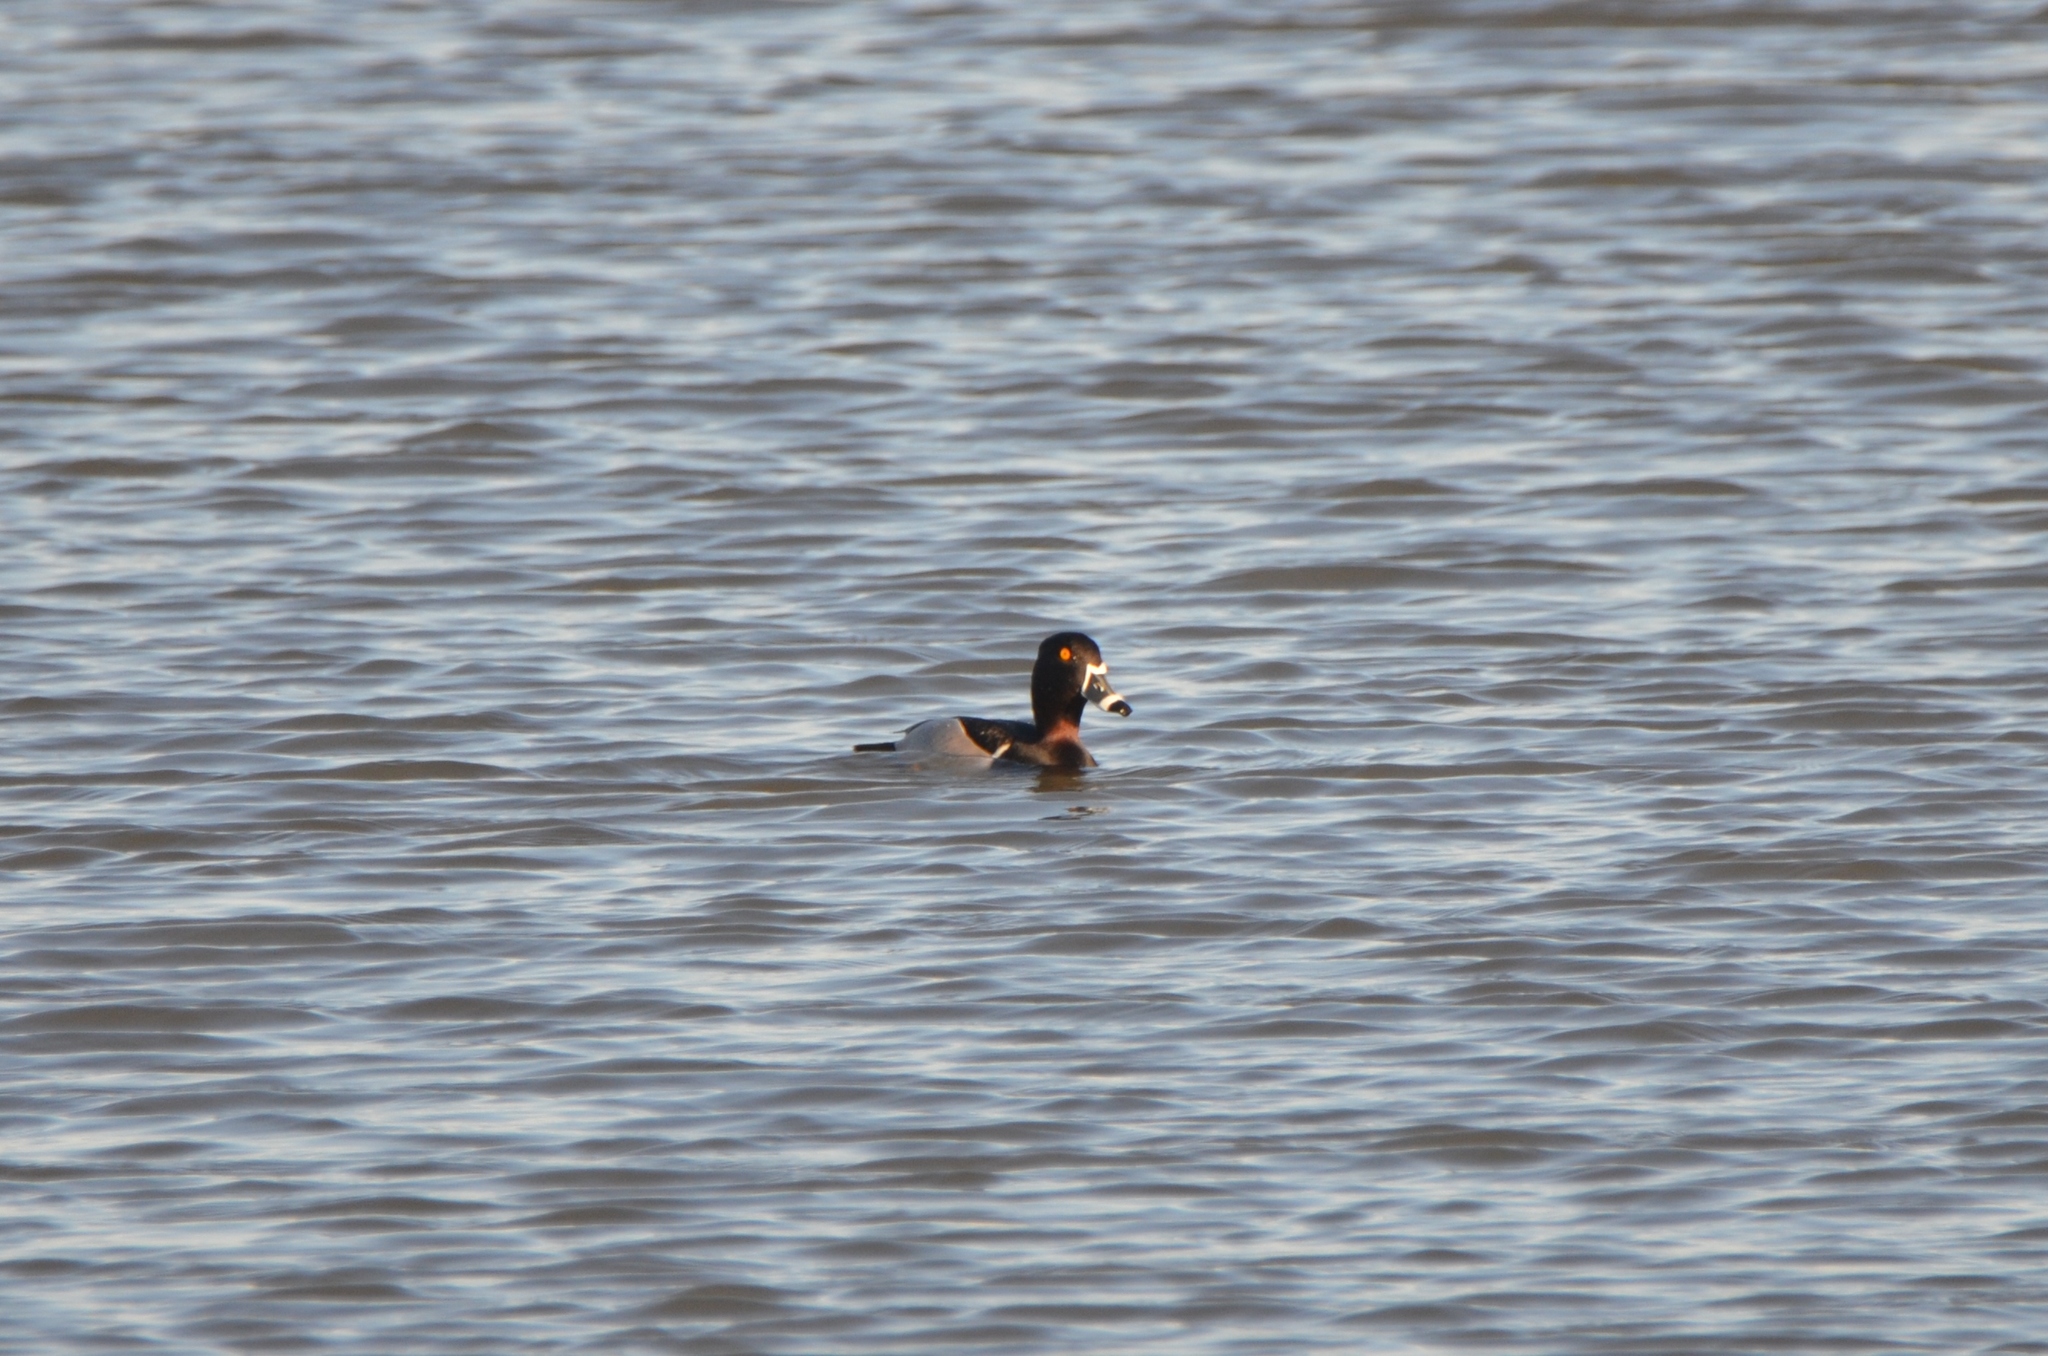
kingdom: Animalia
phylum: Chordata
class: Aves
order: Anseriformes
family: Anatidae
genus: Aythya
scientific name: Aythya collaris
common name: Ring-necked duck
